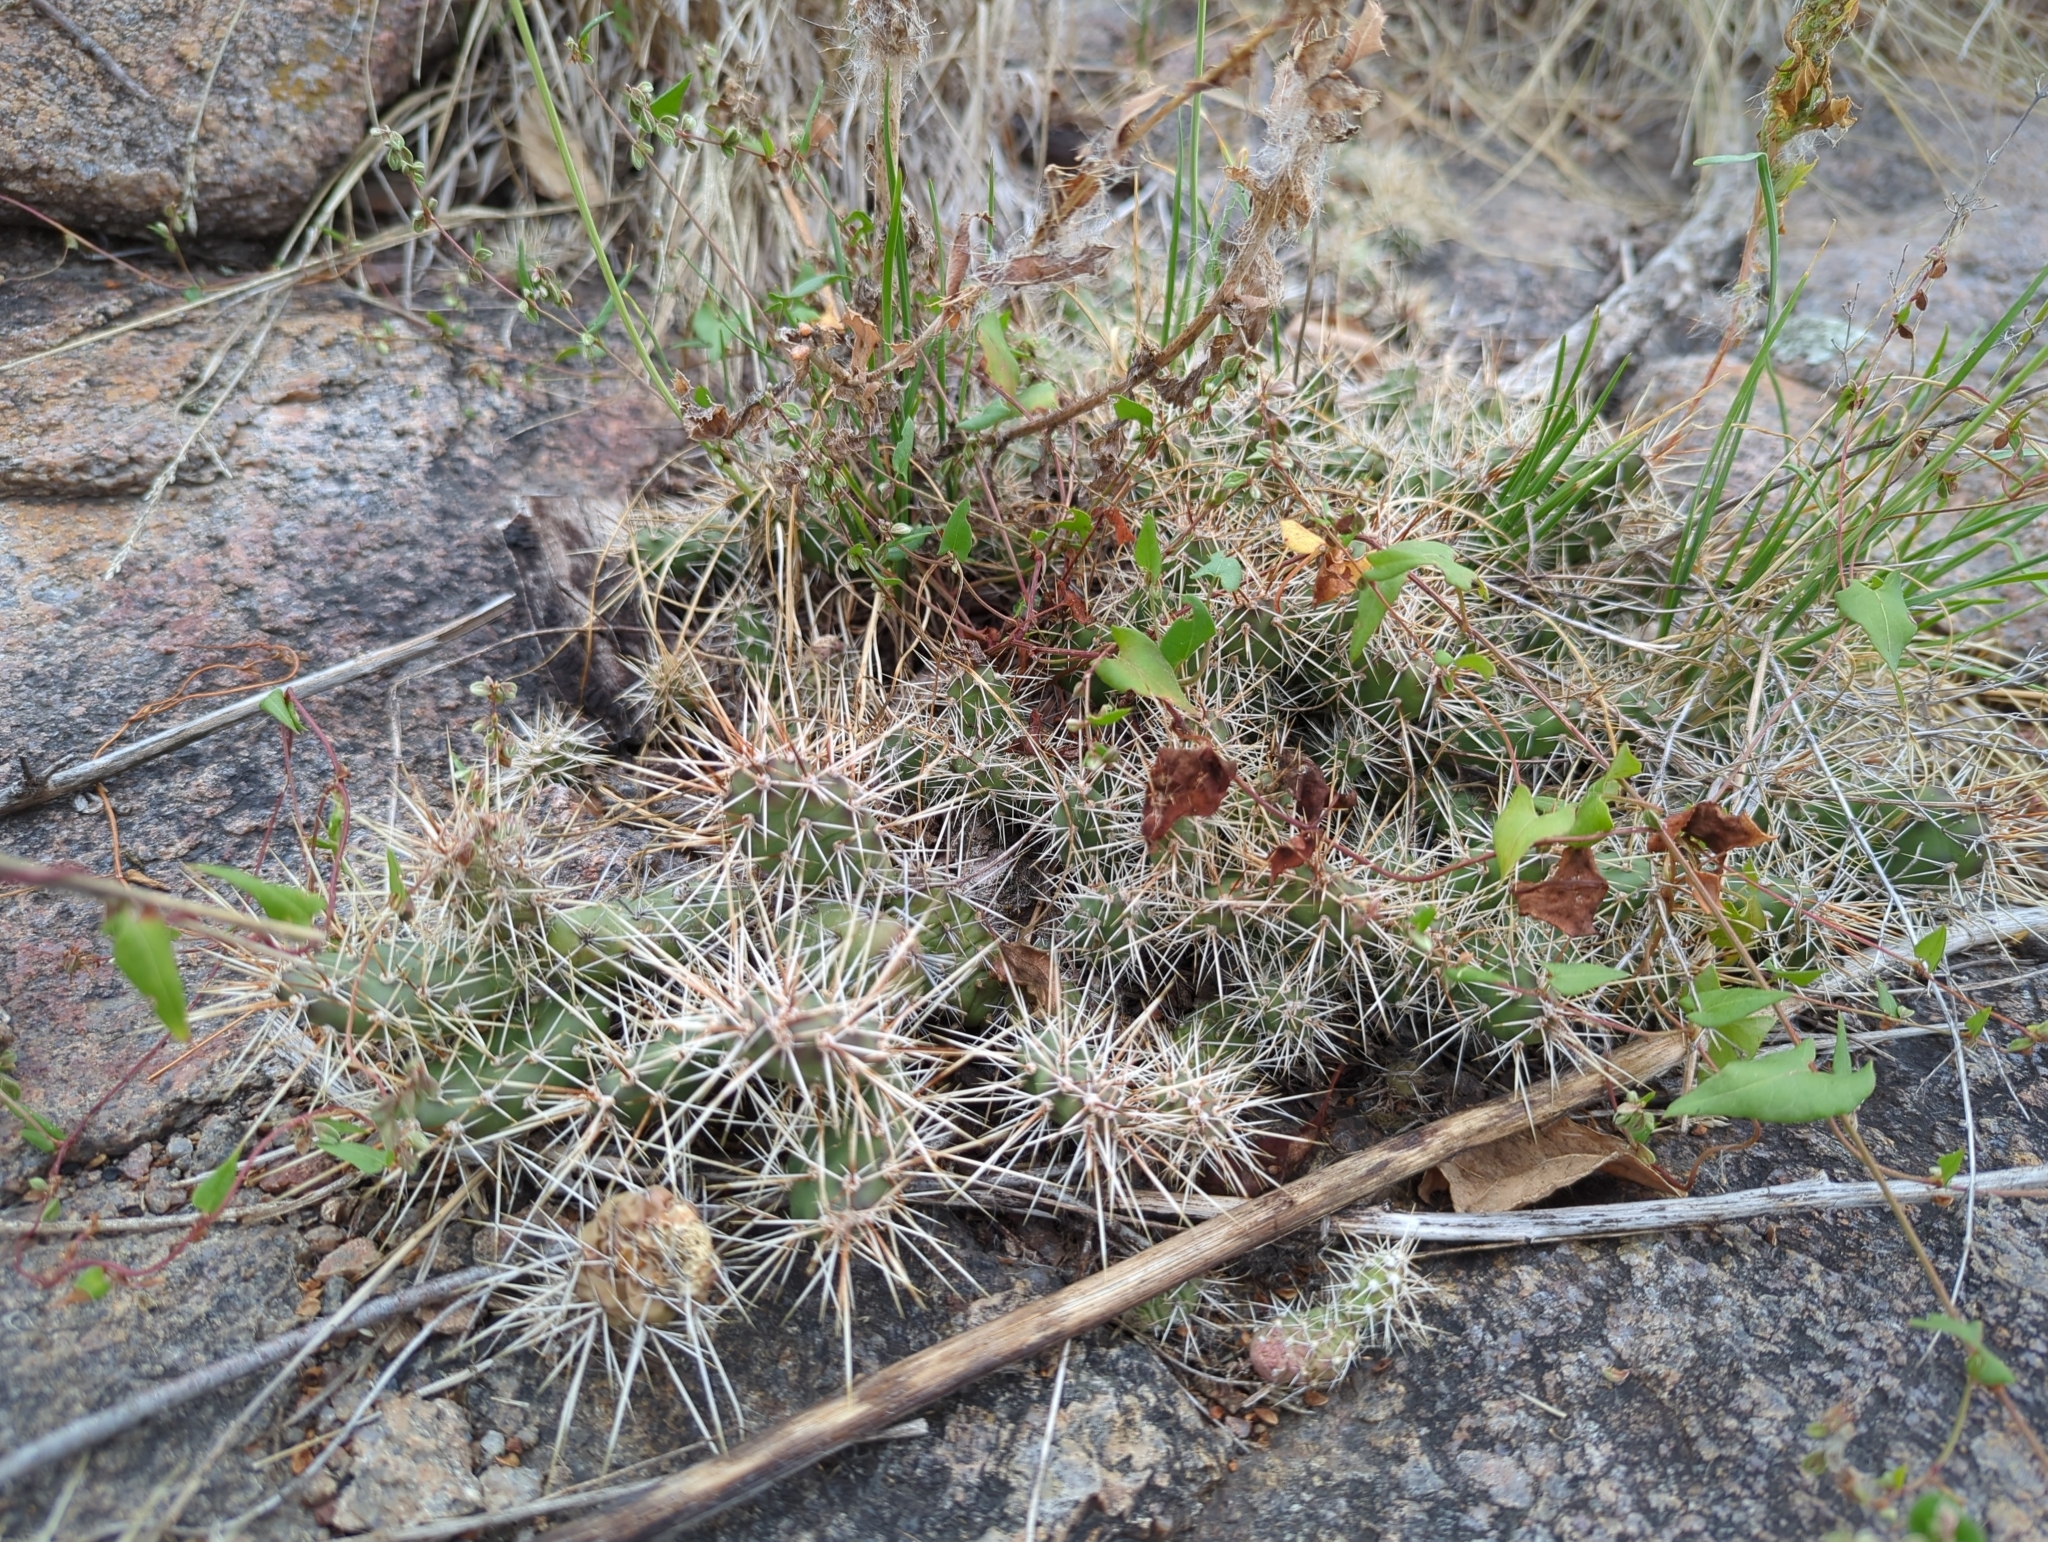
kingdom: Plantae
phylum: Tracheophyta
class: Magnoliopsida
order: Caryophyllales
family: Cactaceae
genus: Opuntia
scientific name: Opuntia fragilis
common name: Brittle cactus
